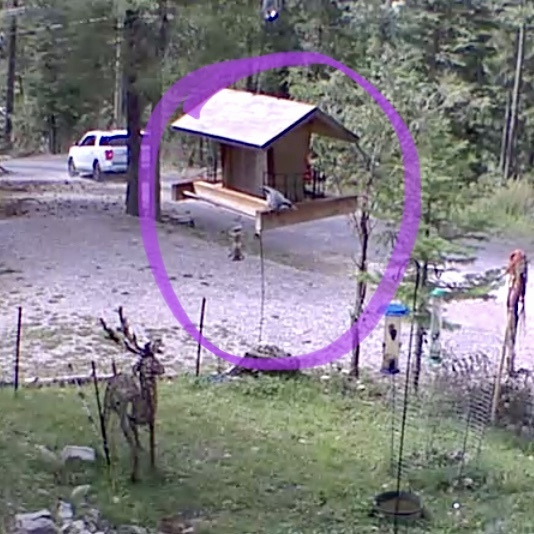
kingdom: Animalia
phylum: Chordata
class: Aves
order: Passeriformes
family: Sittidae
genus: Sitta
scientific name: Sitta pygmaea
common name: Pygmy nuthatch
